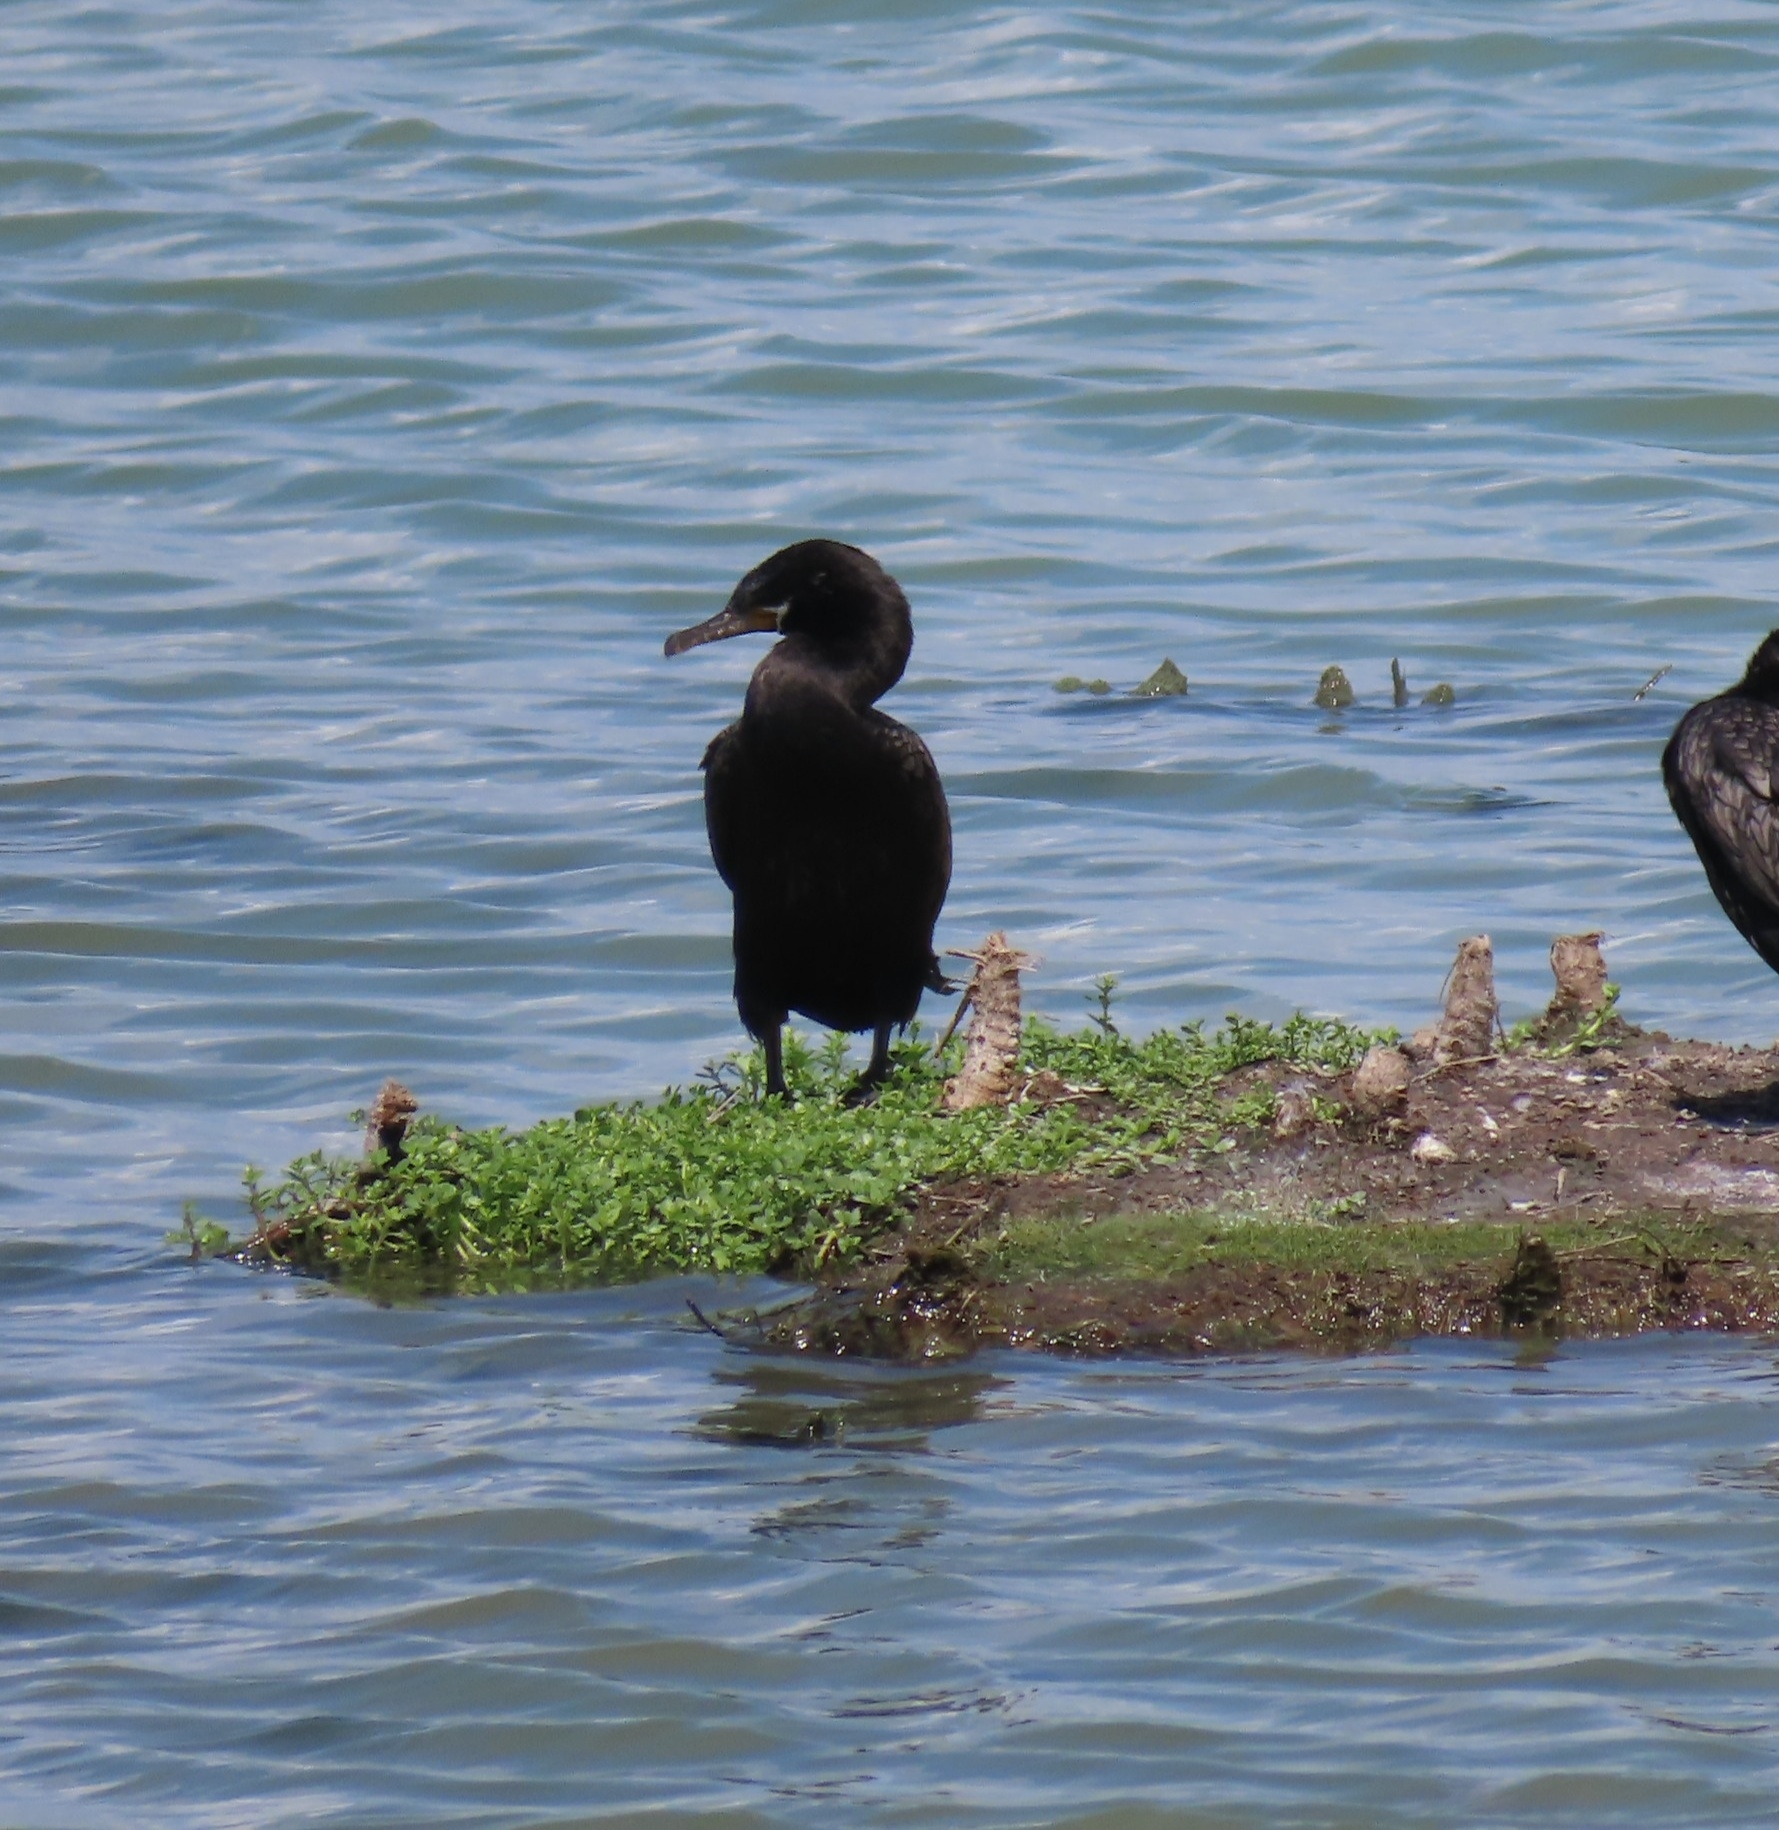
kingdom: Animalia
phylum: Chordata
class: Aves
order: Suliformes
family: Phalacrocoracidae
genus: Phalacrocorax
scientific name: Phalacrocorax brasilianus
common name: Neotropic cormorant
